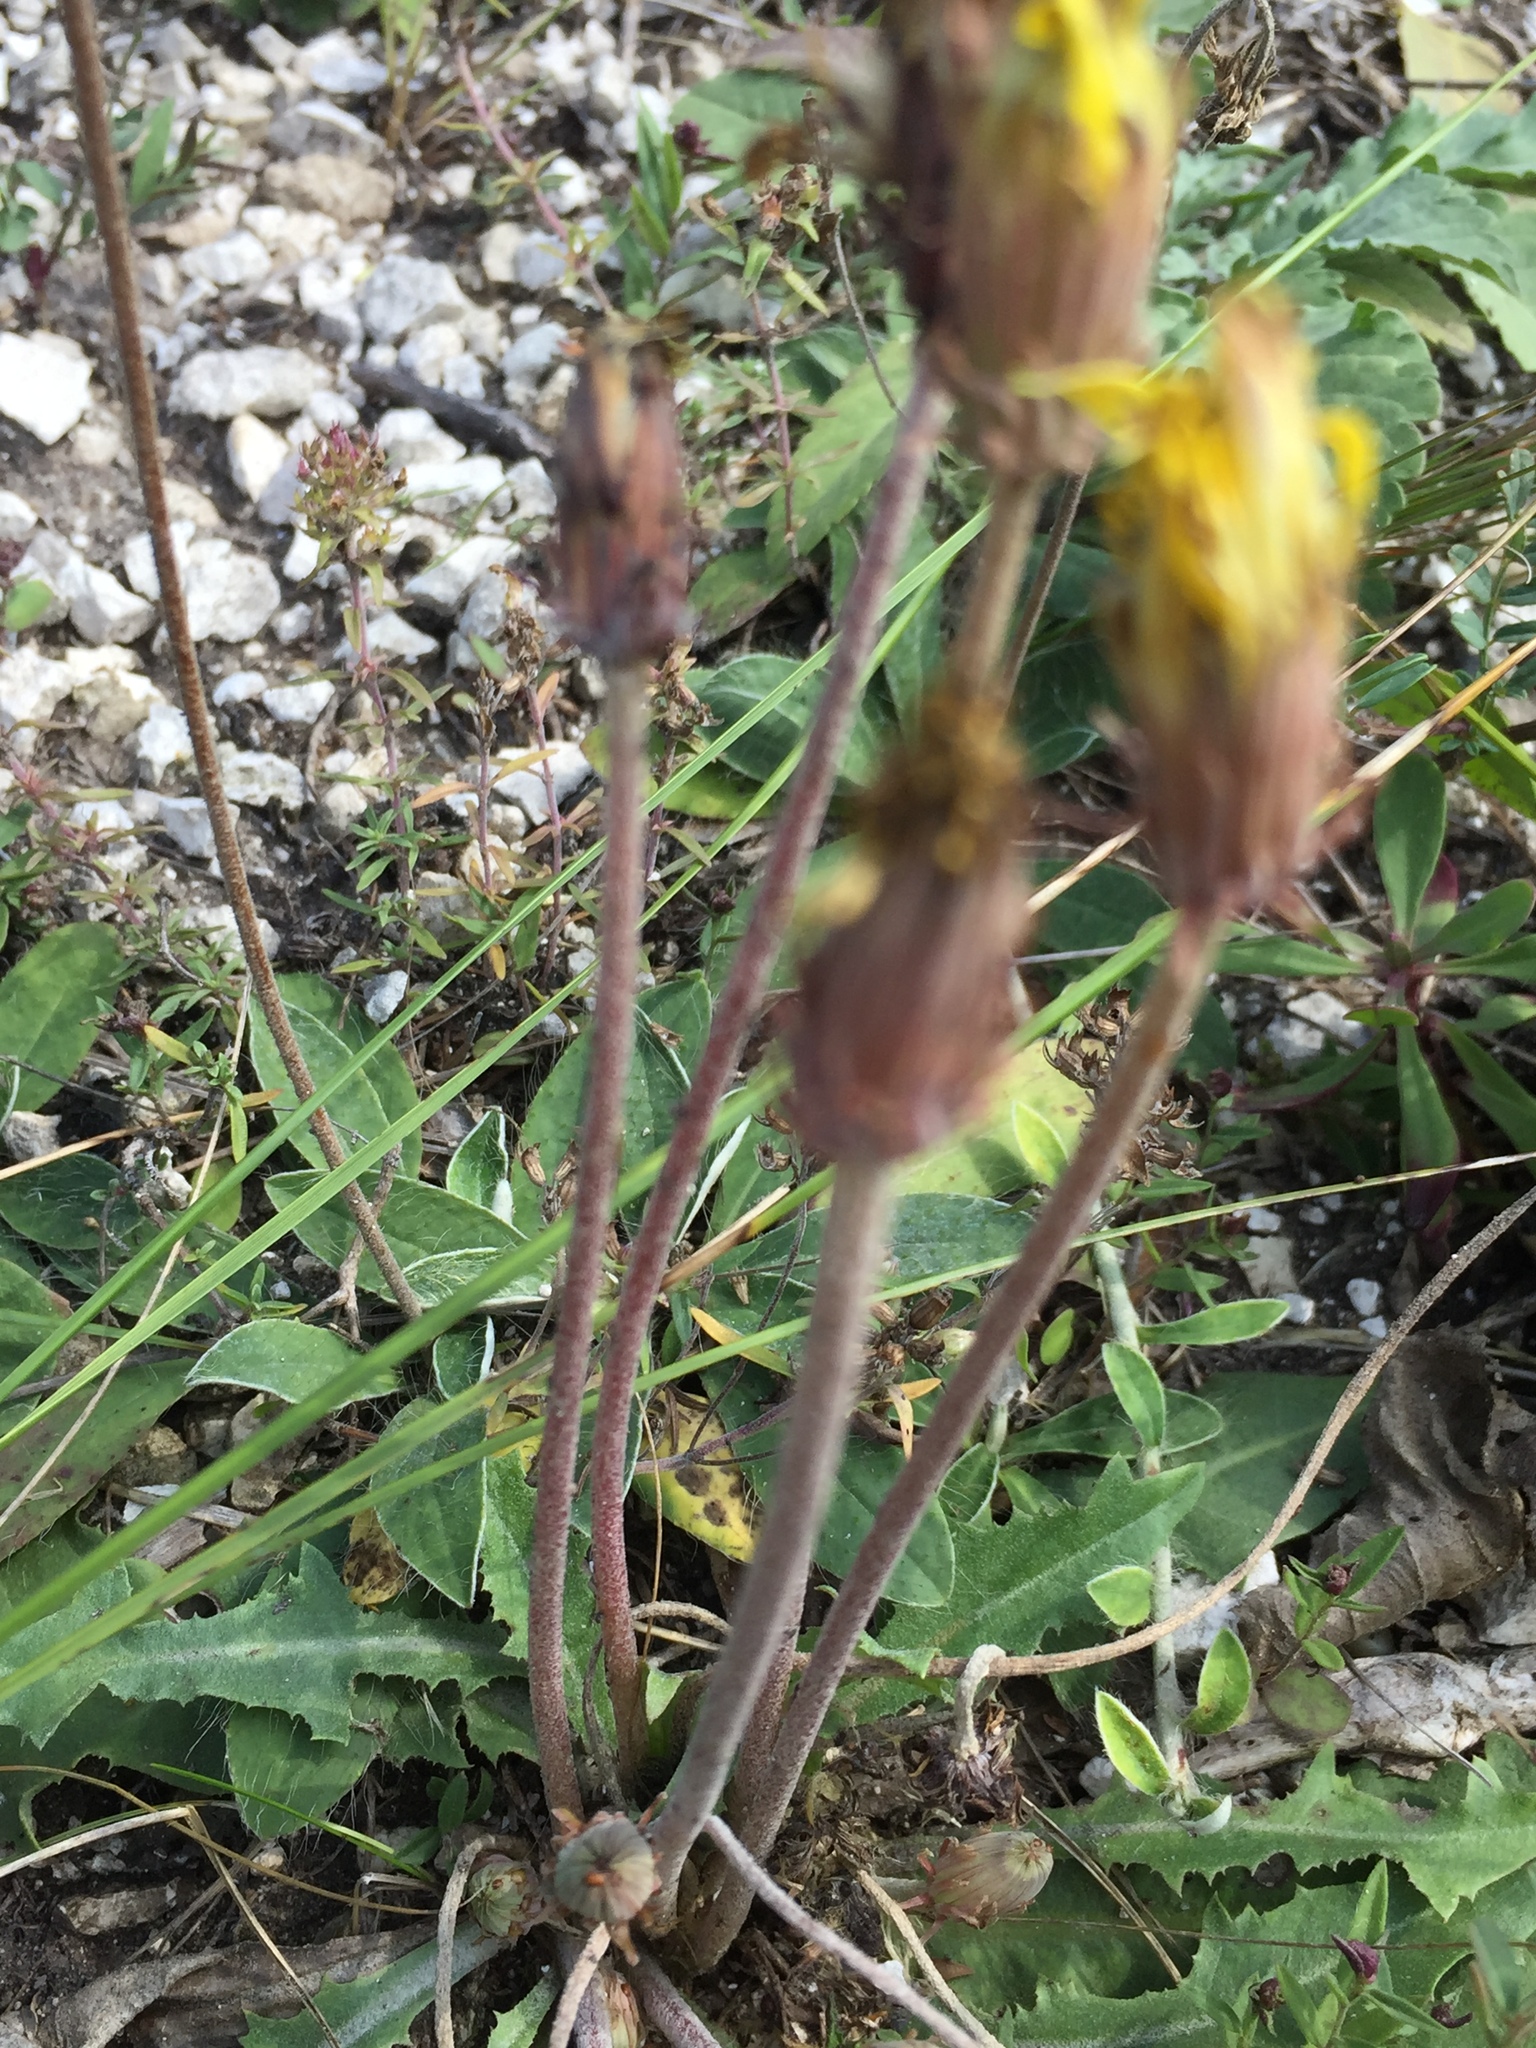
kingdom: Plantae
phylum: Tracheophyta
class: Magnoliopsida
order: Asterales
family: Asteraceae
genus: Taraxacum
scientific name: Taraxacum serotinum
